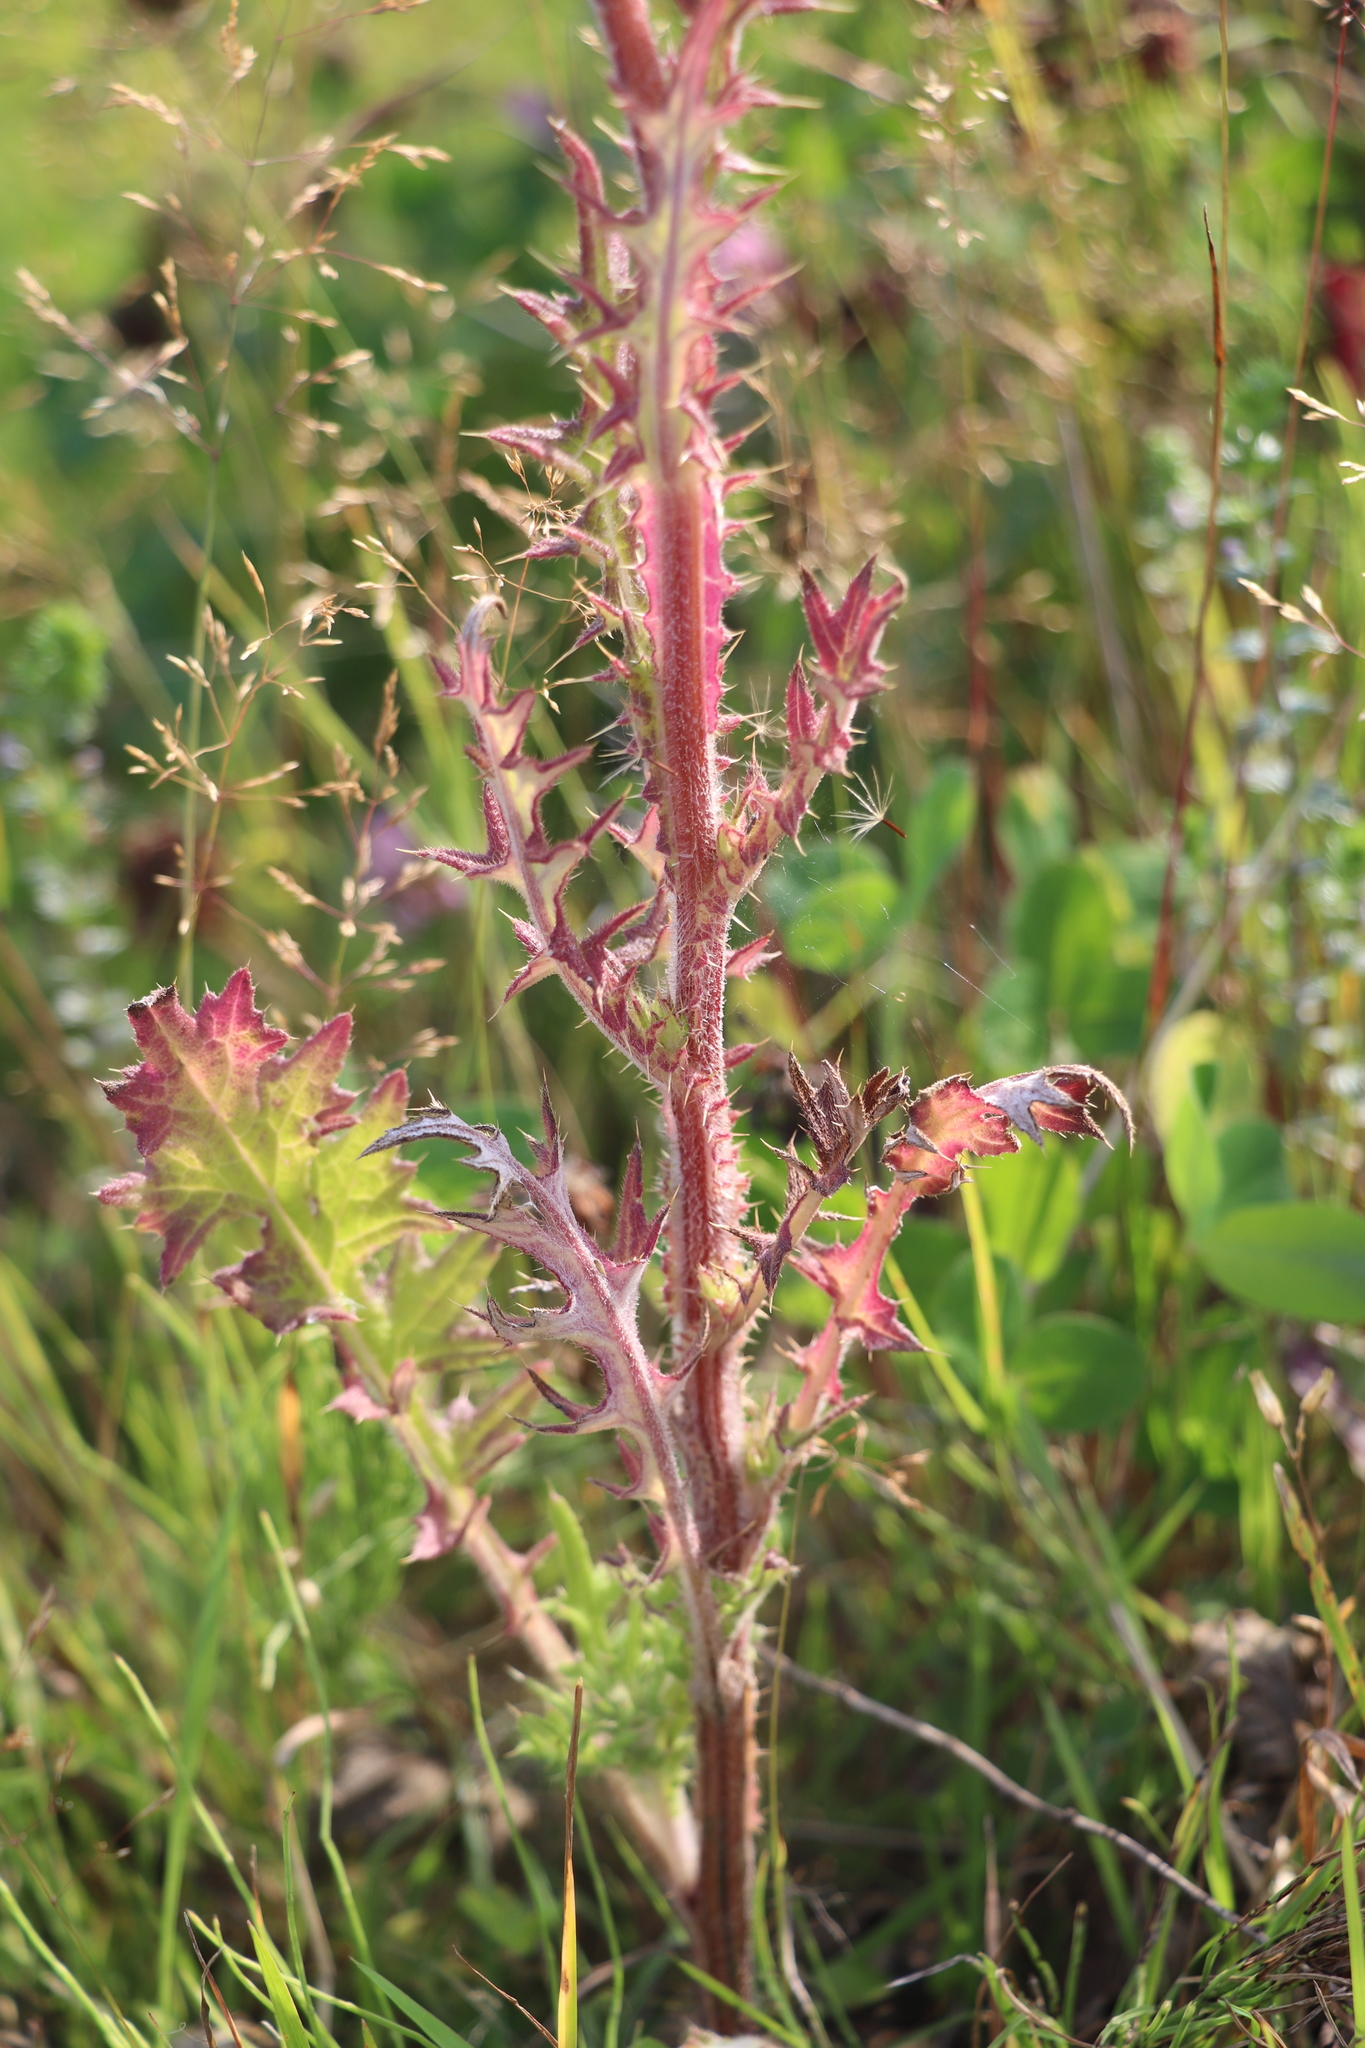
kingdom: Plantae
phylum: Tracheophyta
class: Magnoliopsida
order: Asterales
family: Asteraceae
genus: Cirsium
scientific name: Cirsium vulgare
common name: Bull thistle
